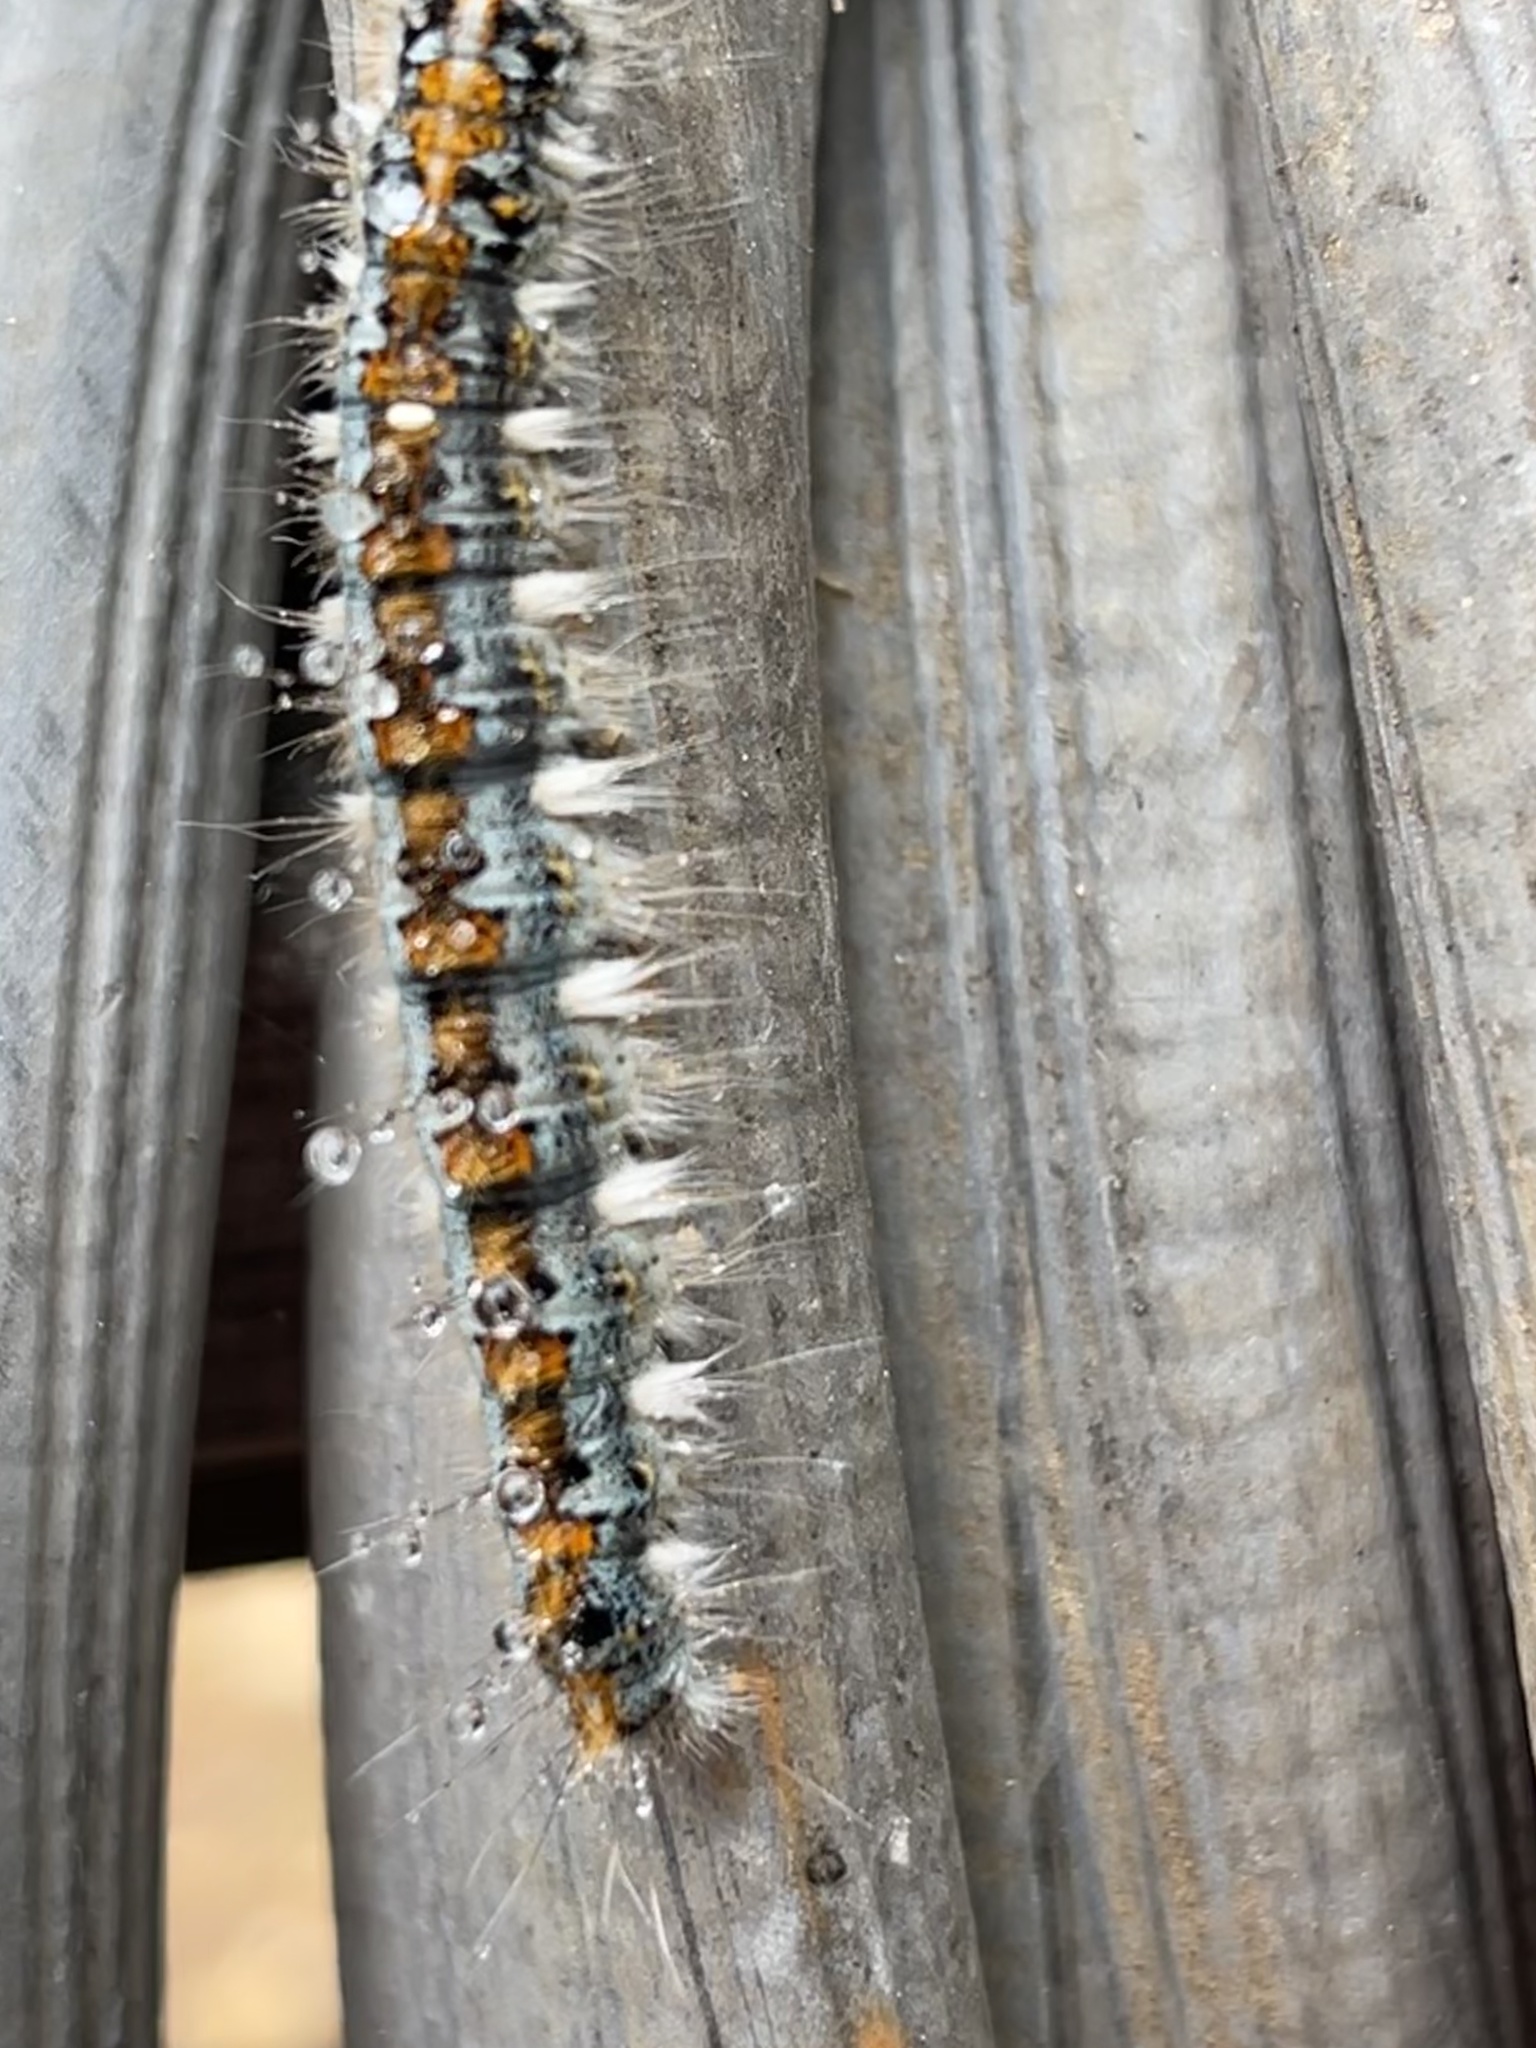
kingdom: Animalia
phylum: Arthropoda
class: Insecta
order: Lepidoptera
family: Lasiocampidae
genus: Malacosoma
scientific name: Malacosoma constricta
